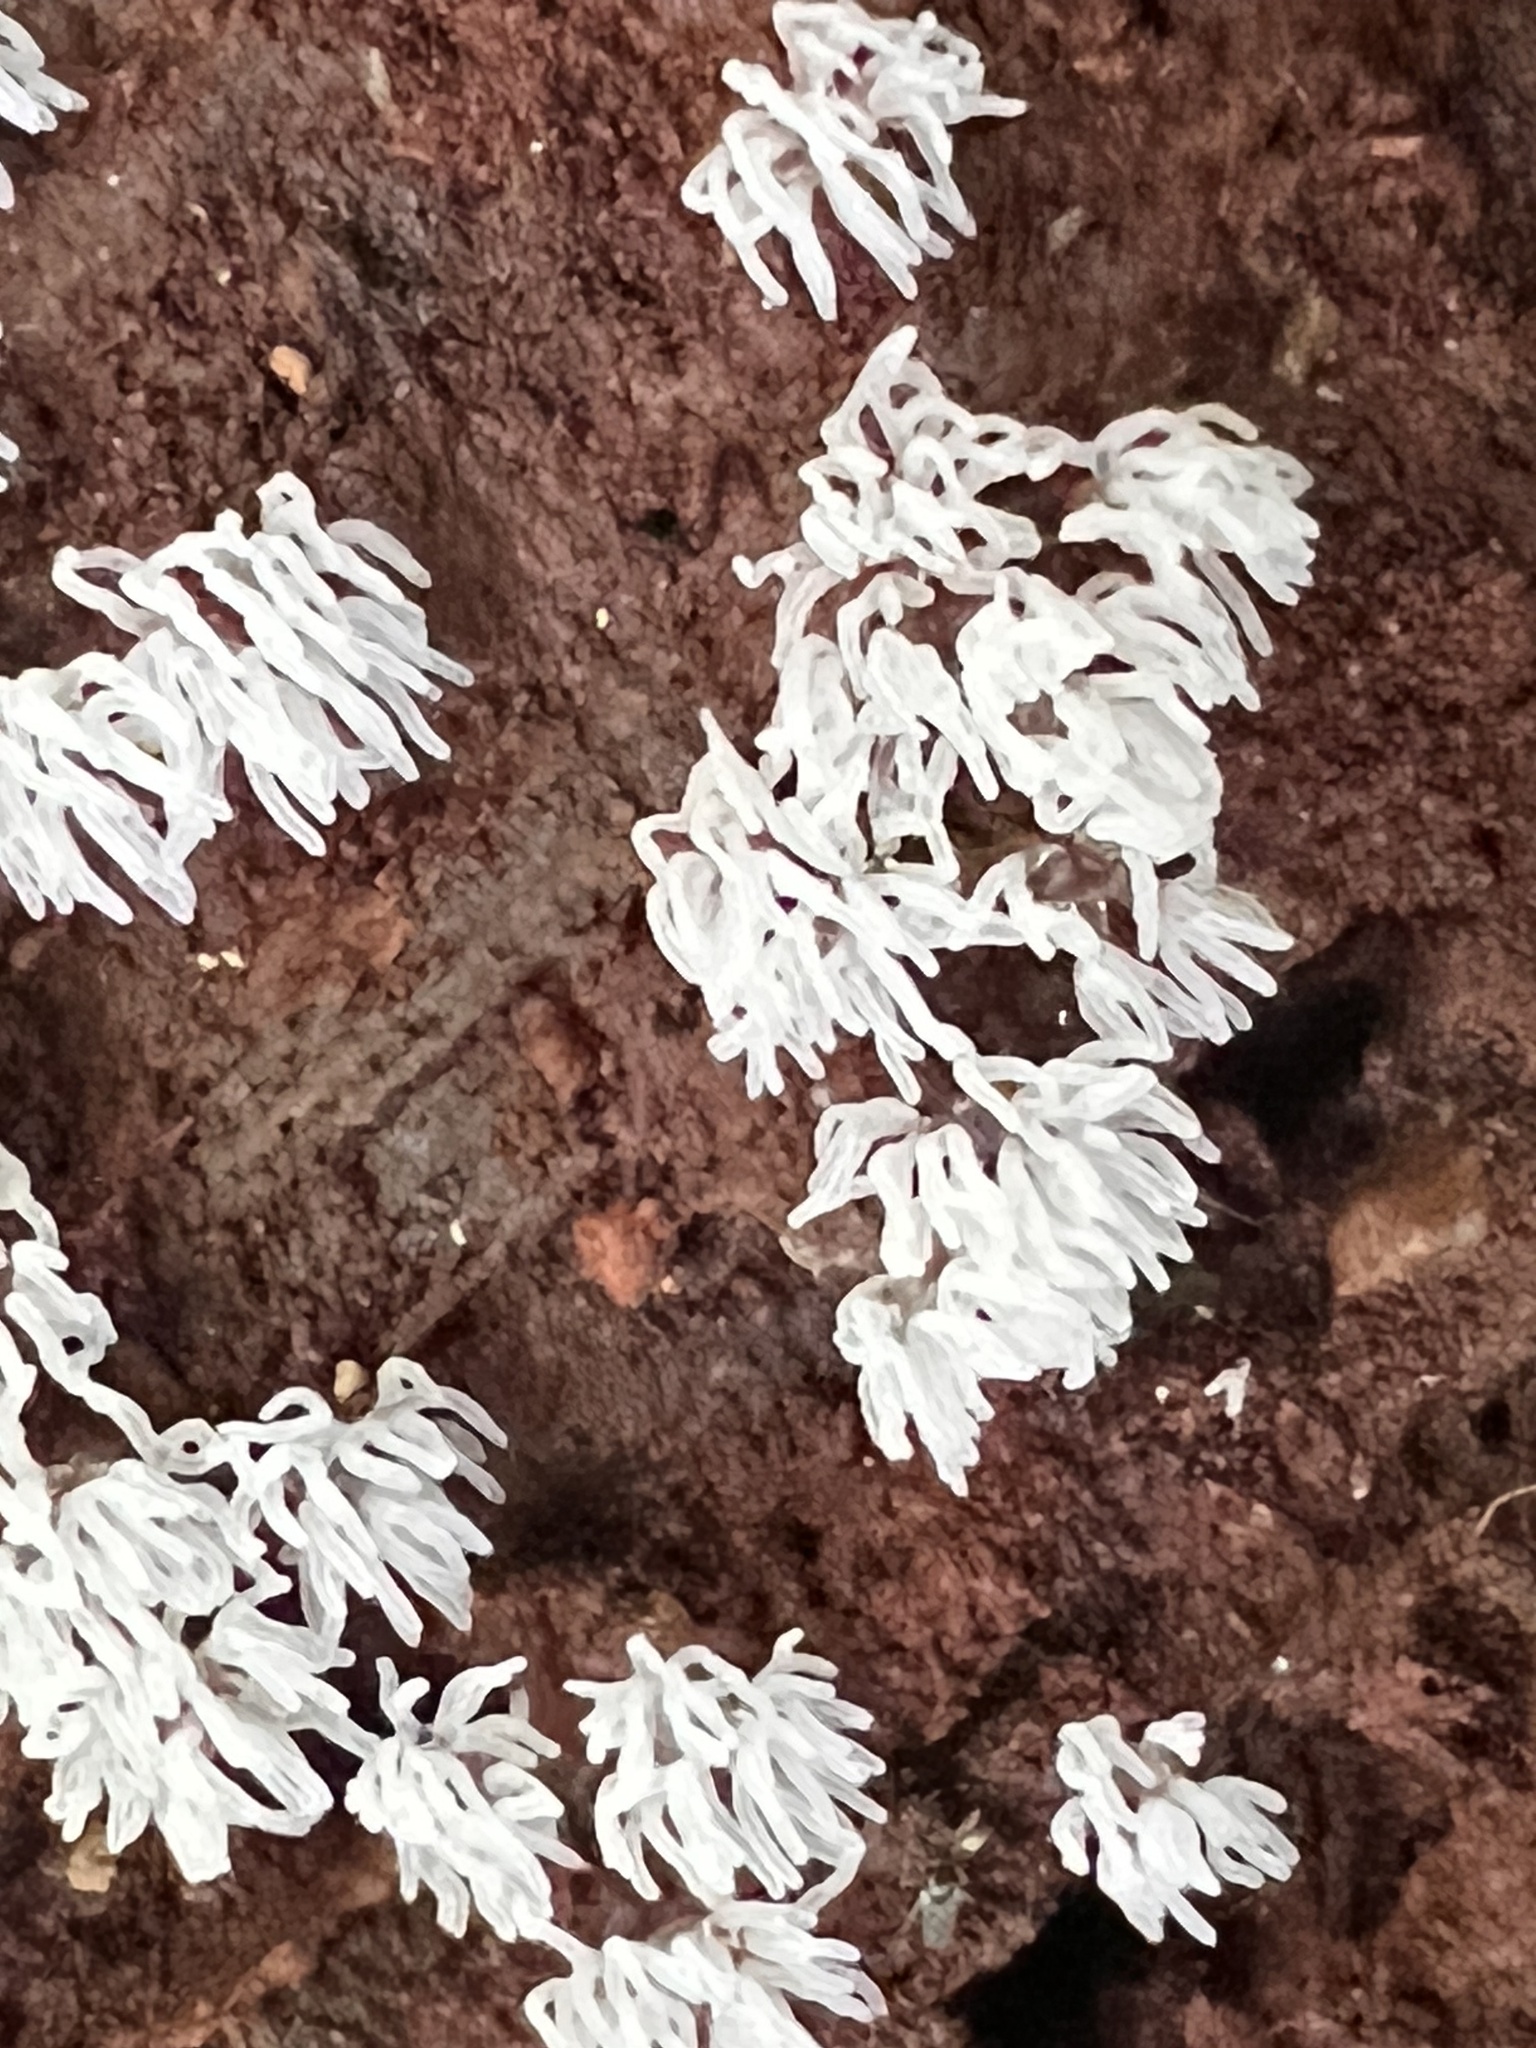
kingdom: Protozoa
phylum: Mycetozoa
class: Protosteliomycetes
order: Ceratiomyxales
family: Ceratiomyxaceae
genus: Ceratiomyxa
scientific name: Ceratiomyxa fruticulosa
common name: Honeycomb coral slime mold
